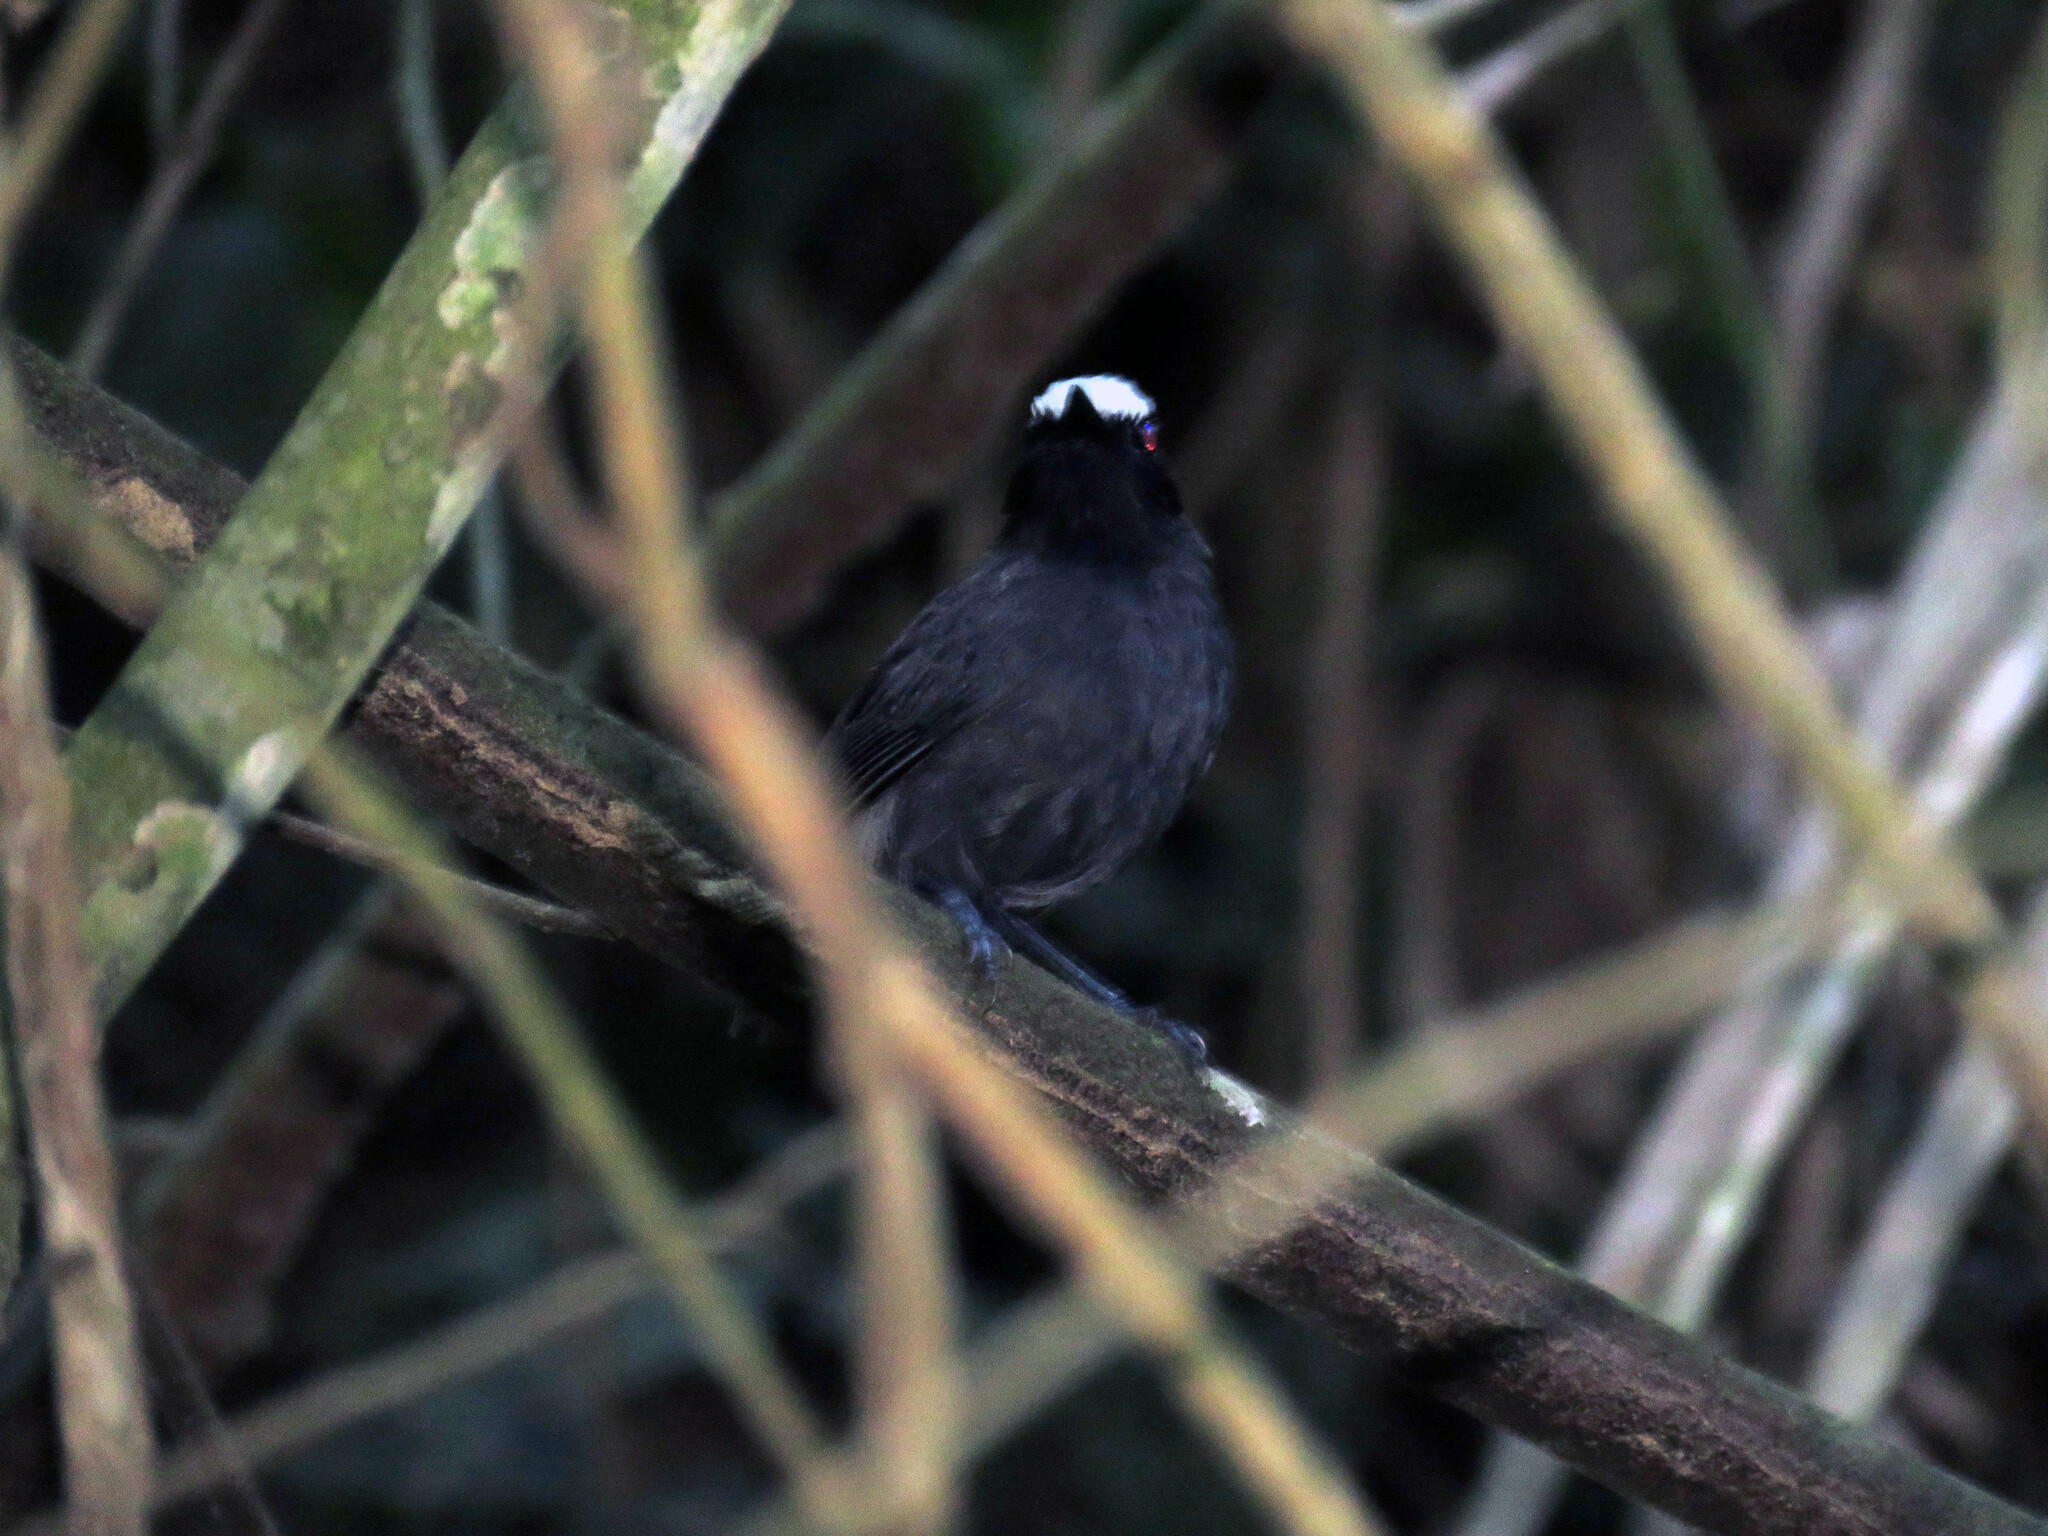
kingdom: Animalia
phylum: Chordata
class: Aves
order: Passeriformes
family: Thamnophilidae
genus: Myrmoborus
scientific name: Myrmoborus leucophrys
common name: White-browed antbird
